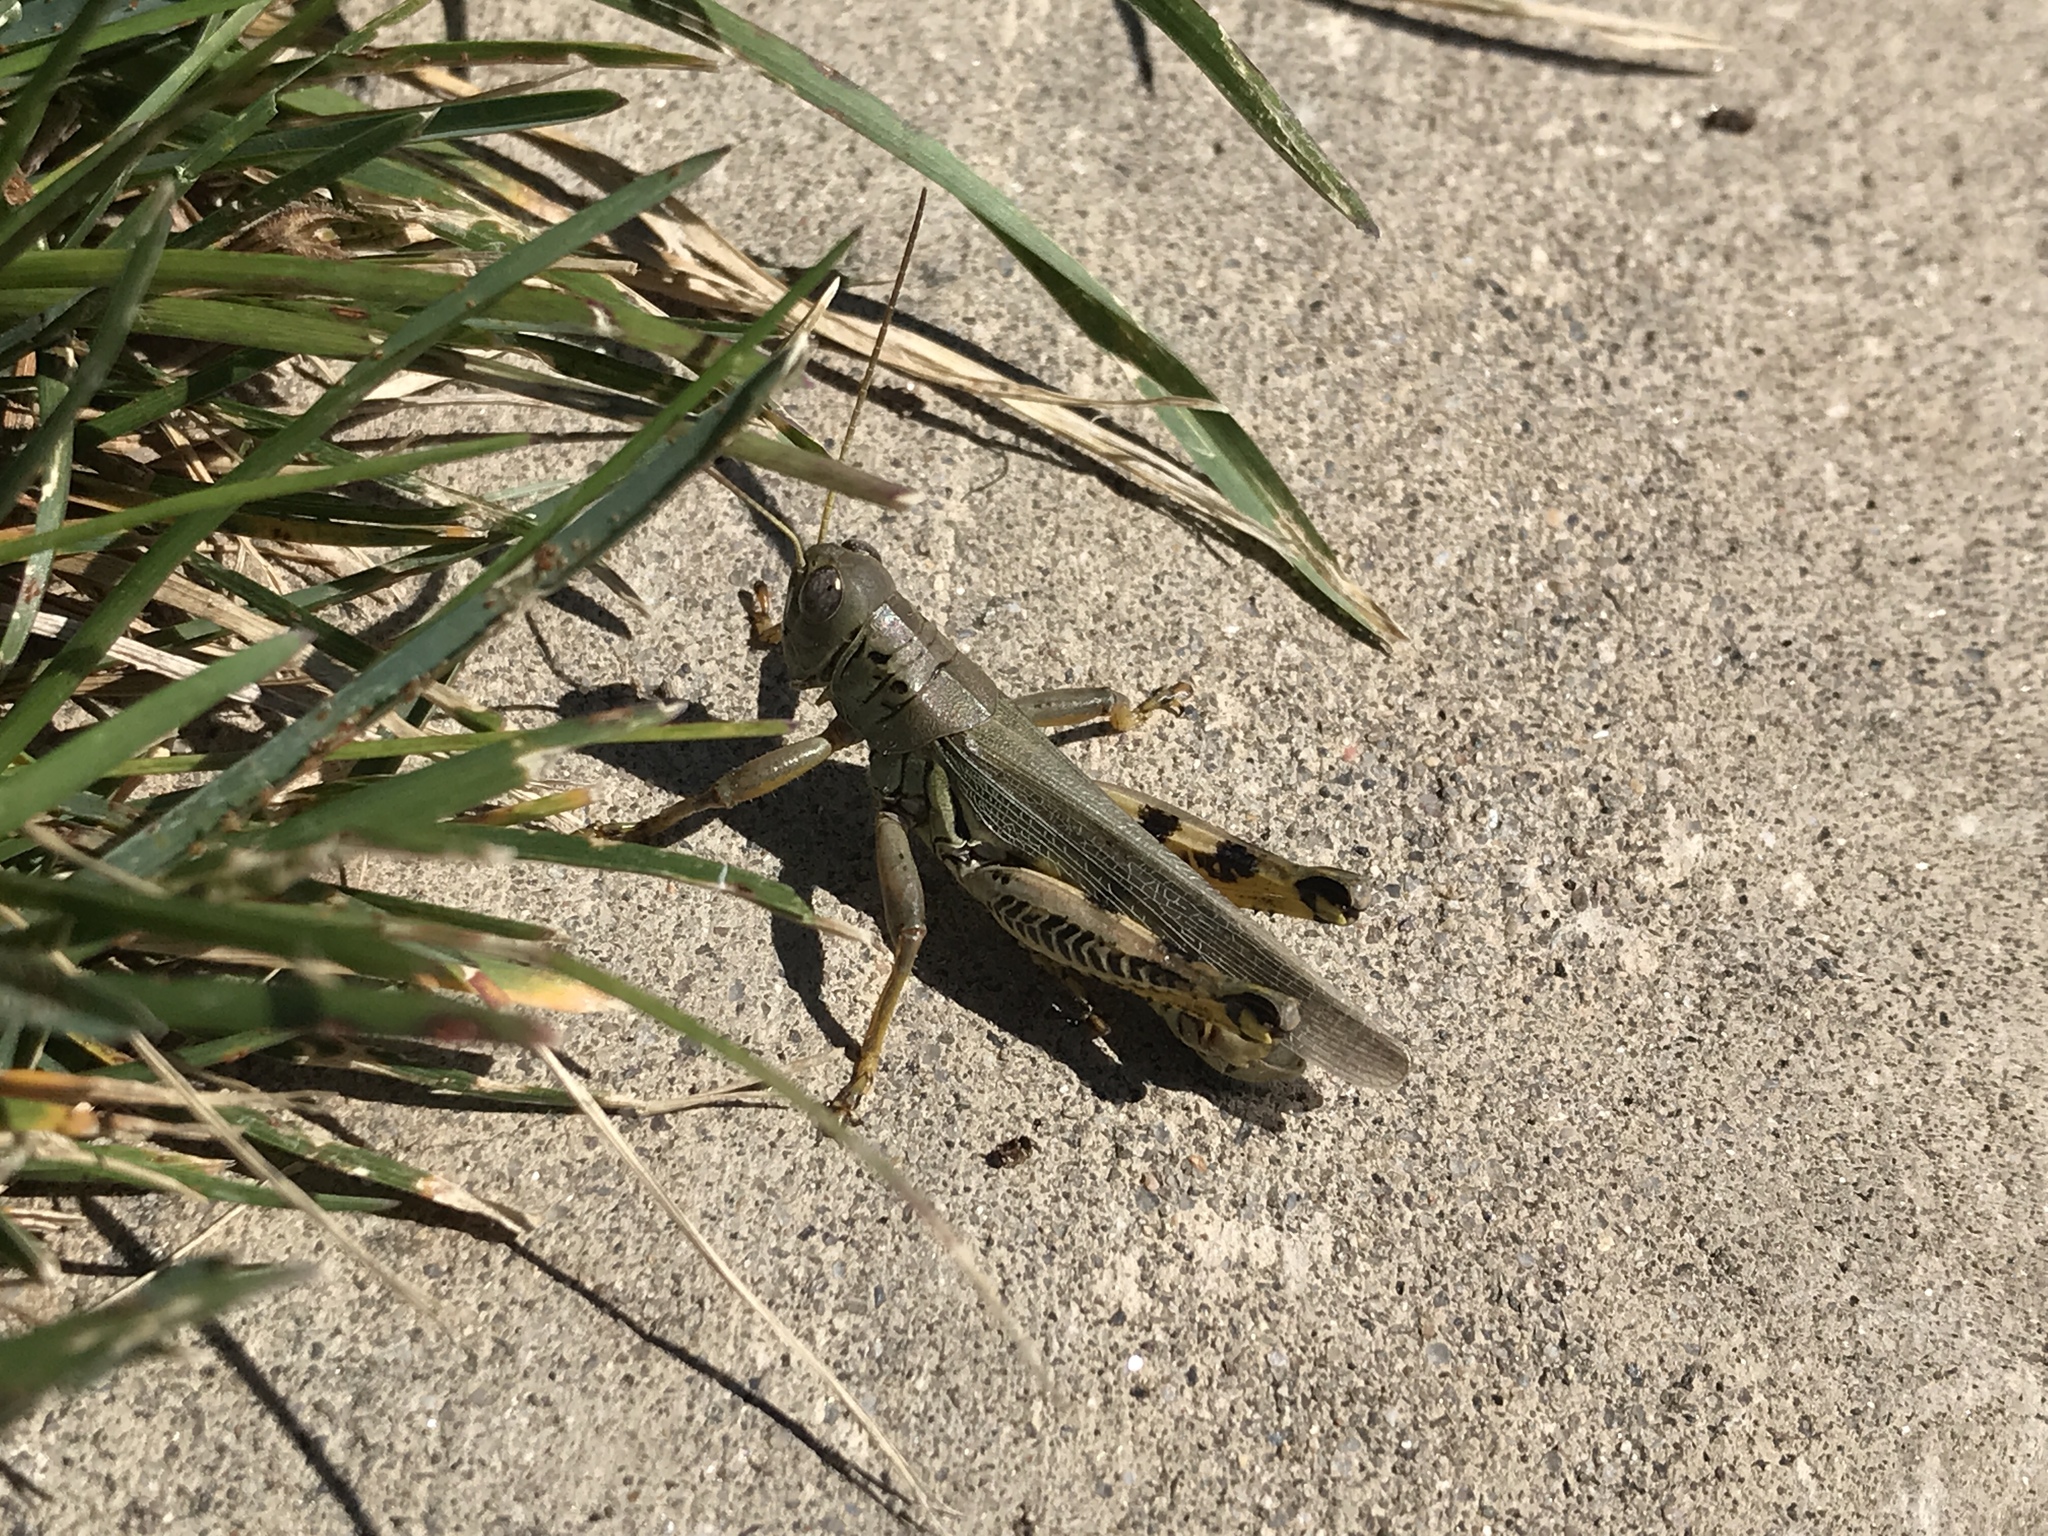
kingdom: Animalia
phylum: Arthropoda
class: Insecta
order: Orthoptera
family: Acrididae
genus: Melanoplus
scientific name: Melanoplus differentialis
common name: Differential grasshopper
